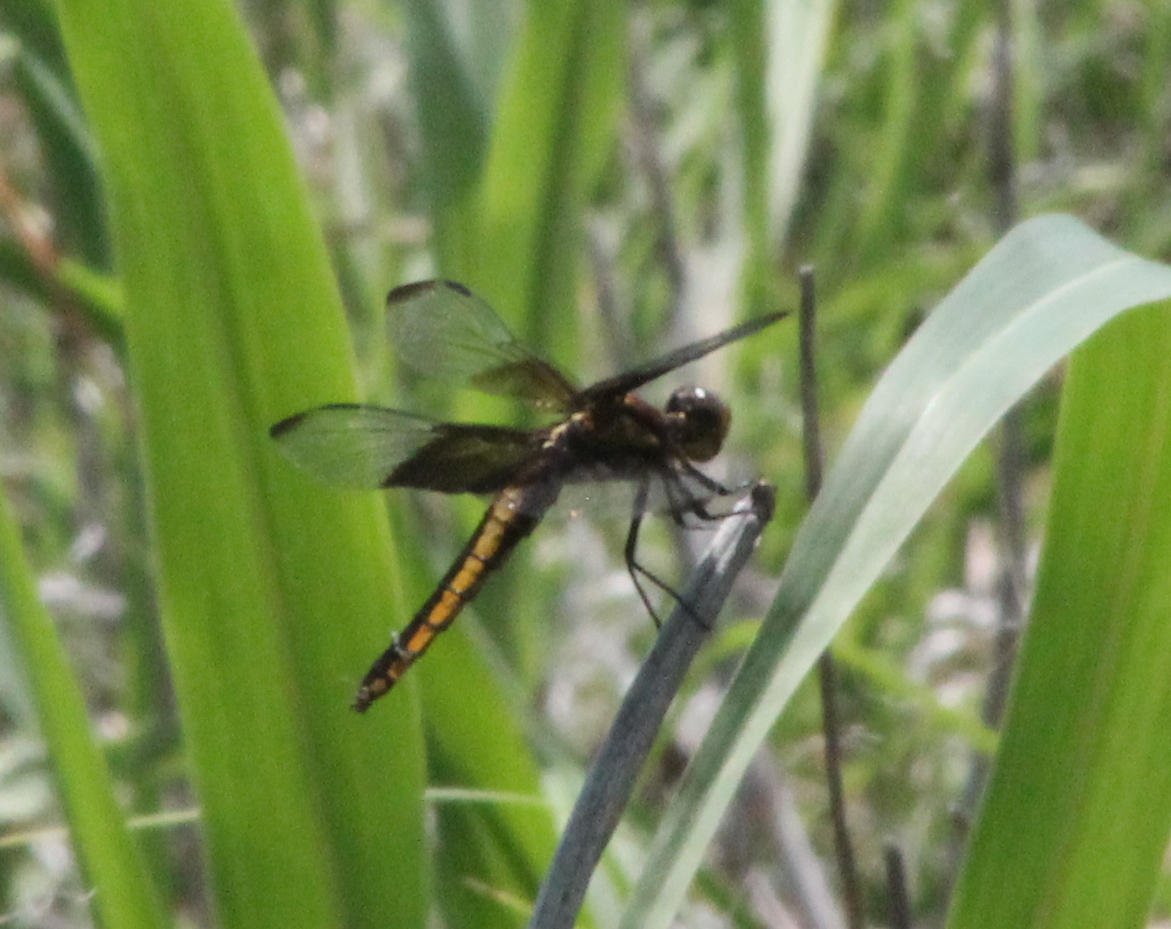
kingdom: Animalia
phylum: Arthropoda
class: Insecta
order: Odonata
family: Libellulidae
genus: Libellula
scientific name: Libellula luctuosa
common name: Widow skimmer
